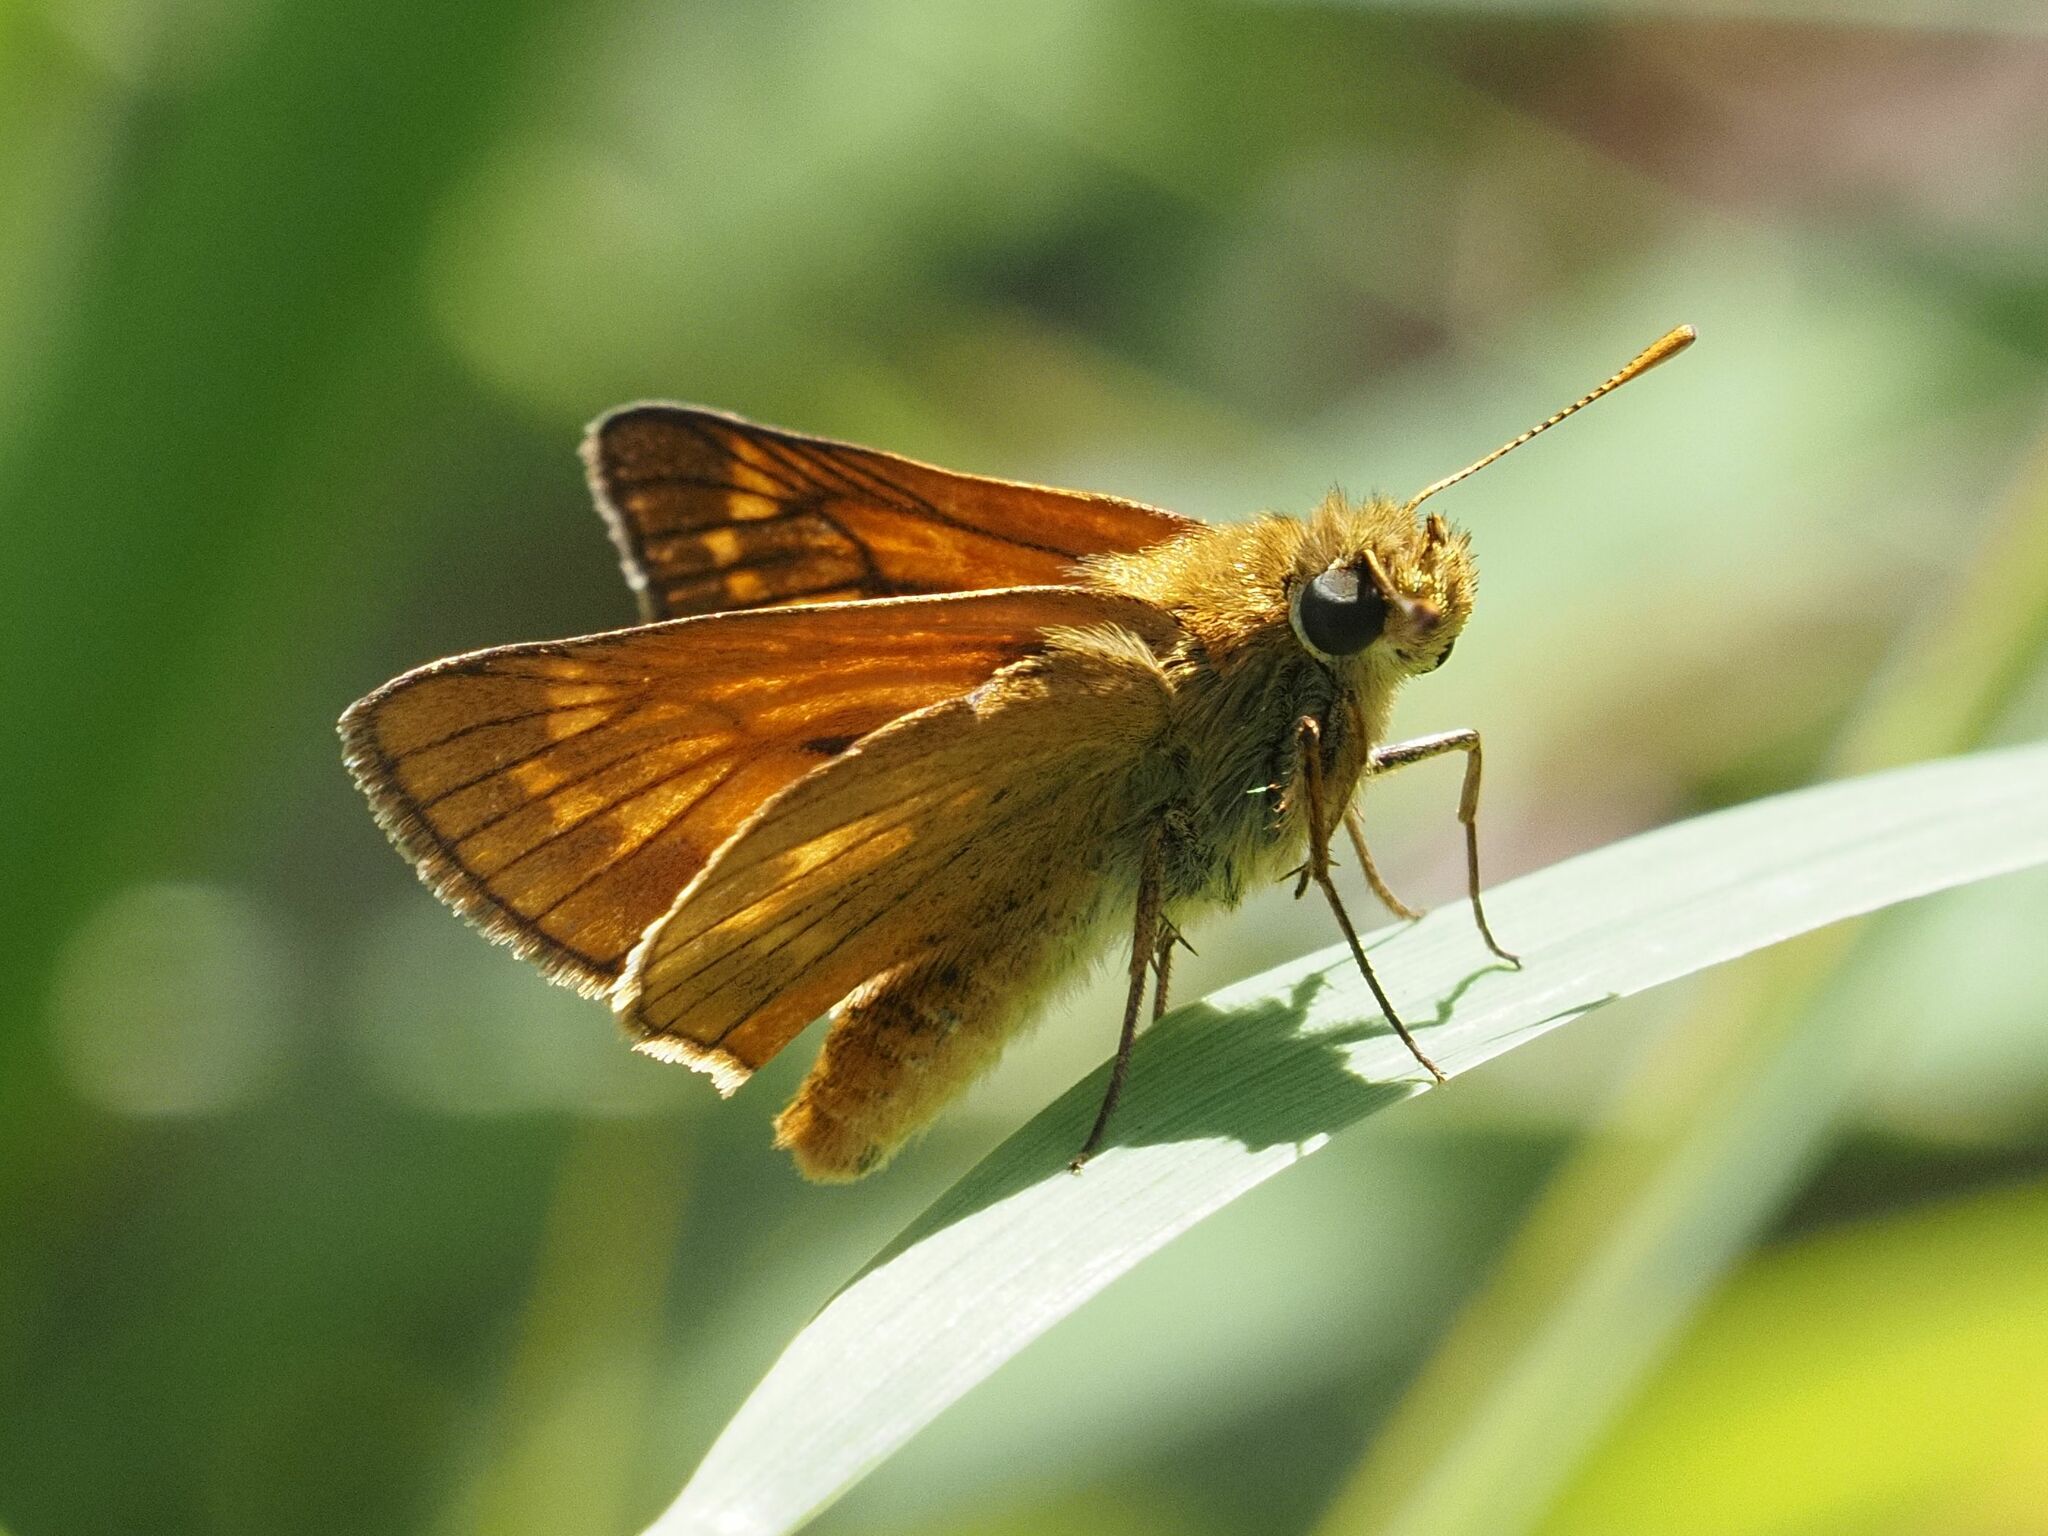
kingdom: Animalia
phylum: Arthropoda
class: Insecta
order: Lepidoptera
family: Hesperiidae
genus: Ochlodes
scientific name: Ochlodes venata
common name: Large skipper
